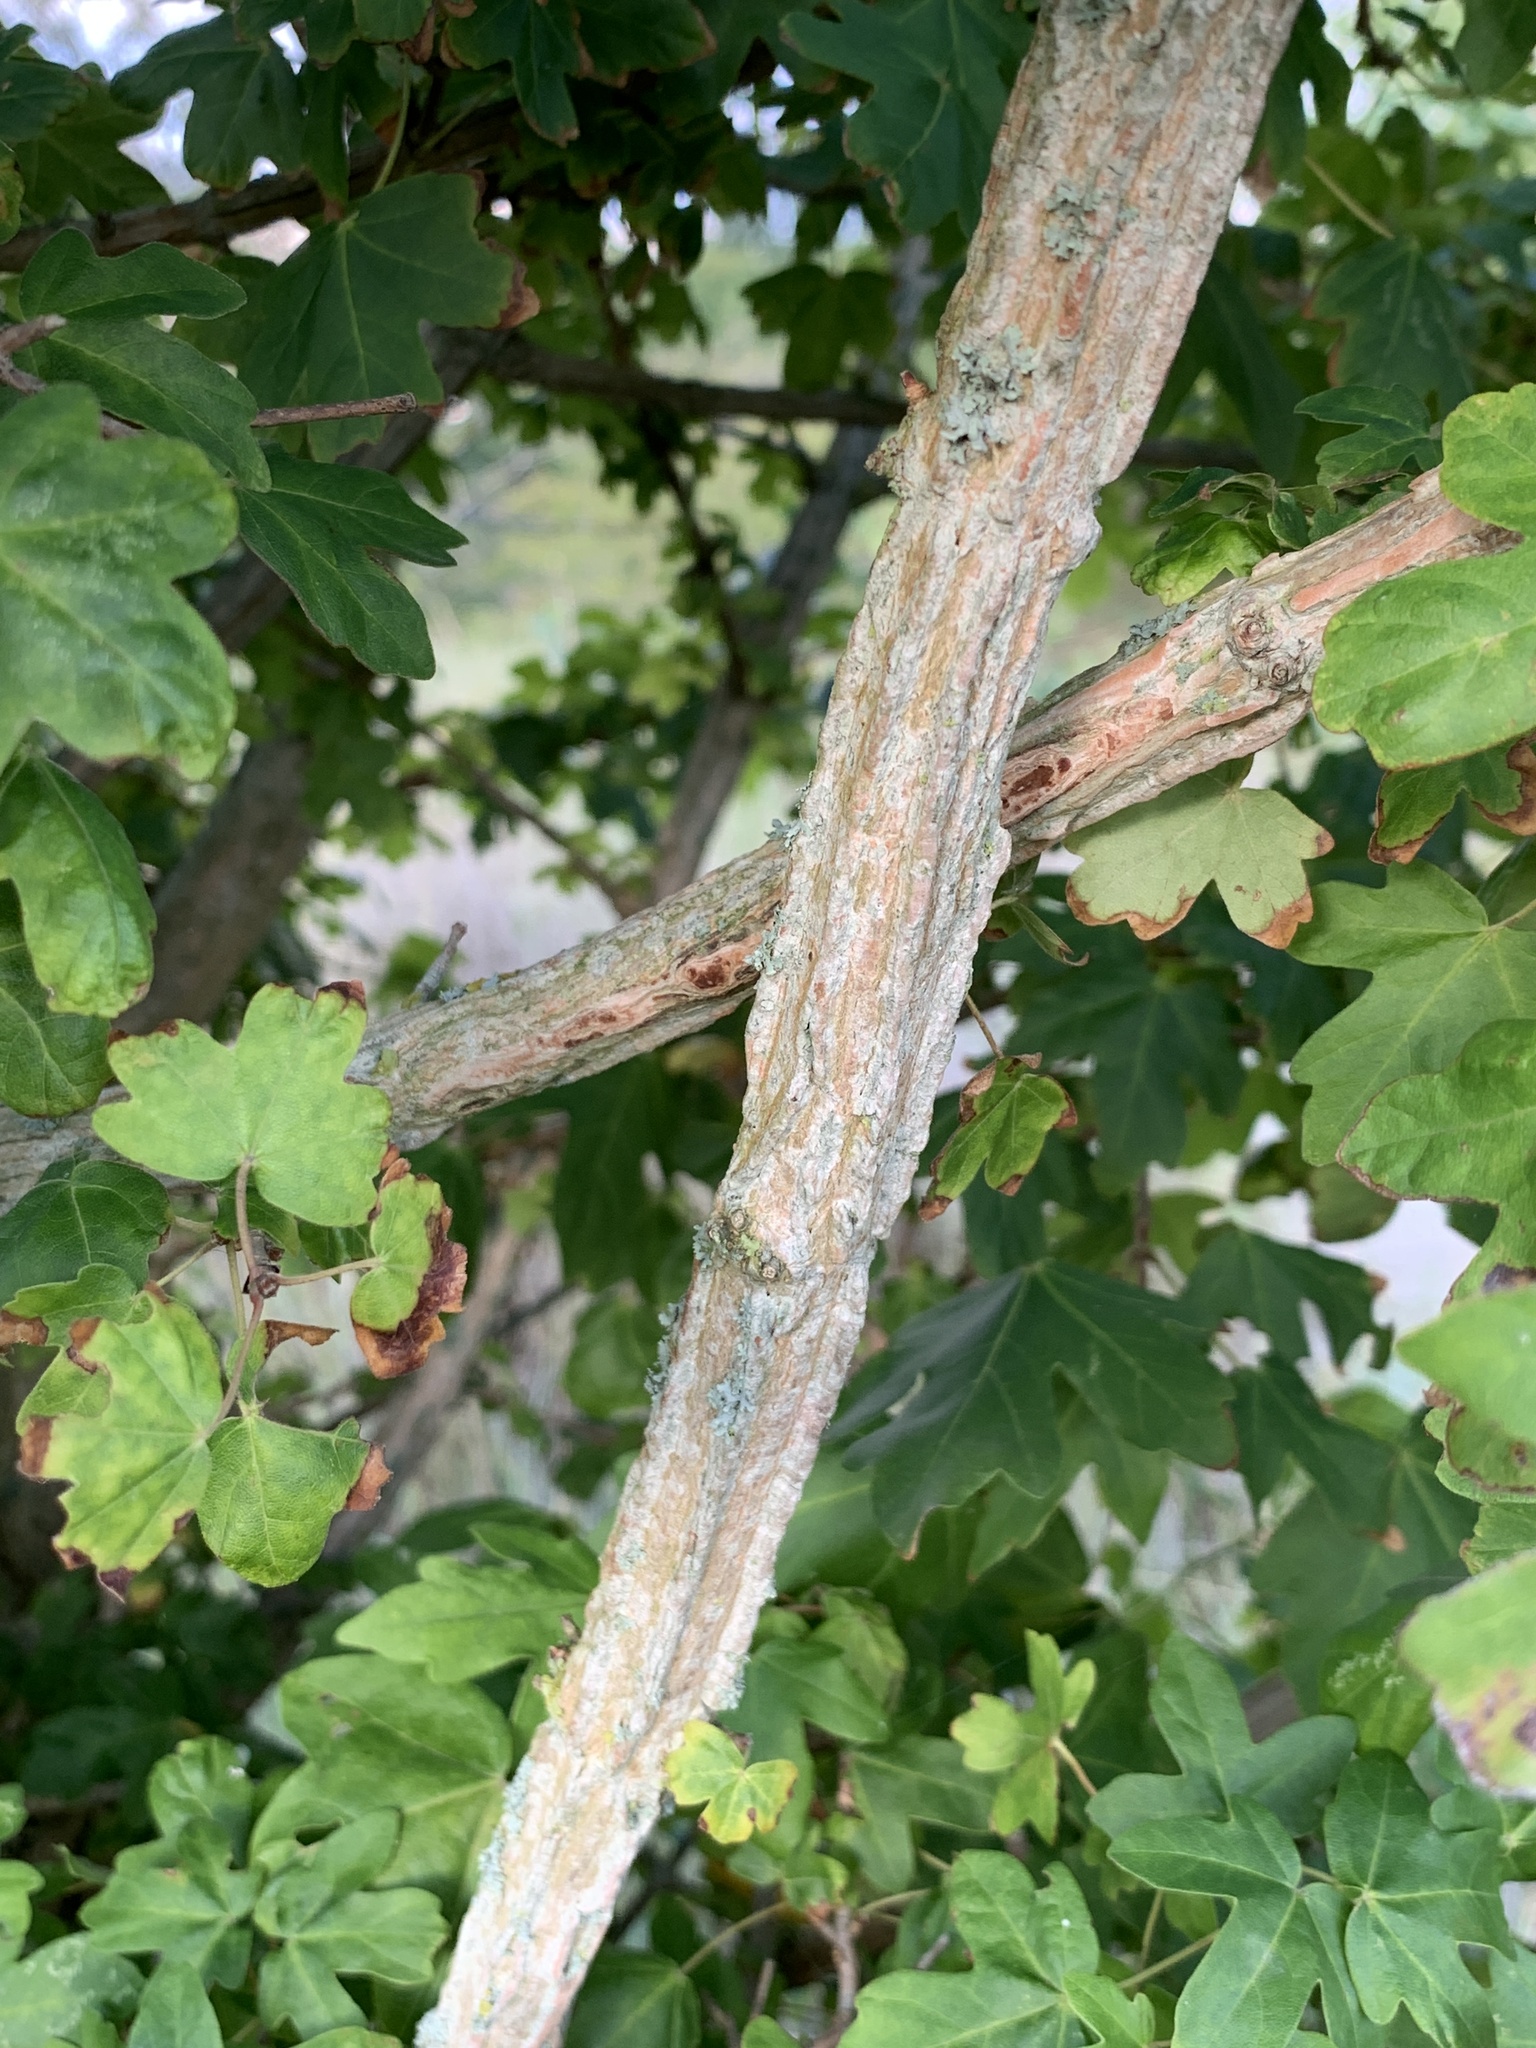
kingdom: Plantae
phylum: Tracheophyta
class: Magnoliopsida
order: Sapindales
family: Sapindaceae
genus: Acer
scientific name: Acer campestre
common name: Field maple
